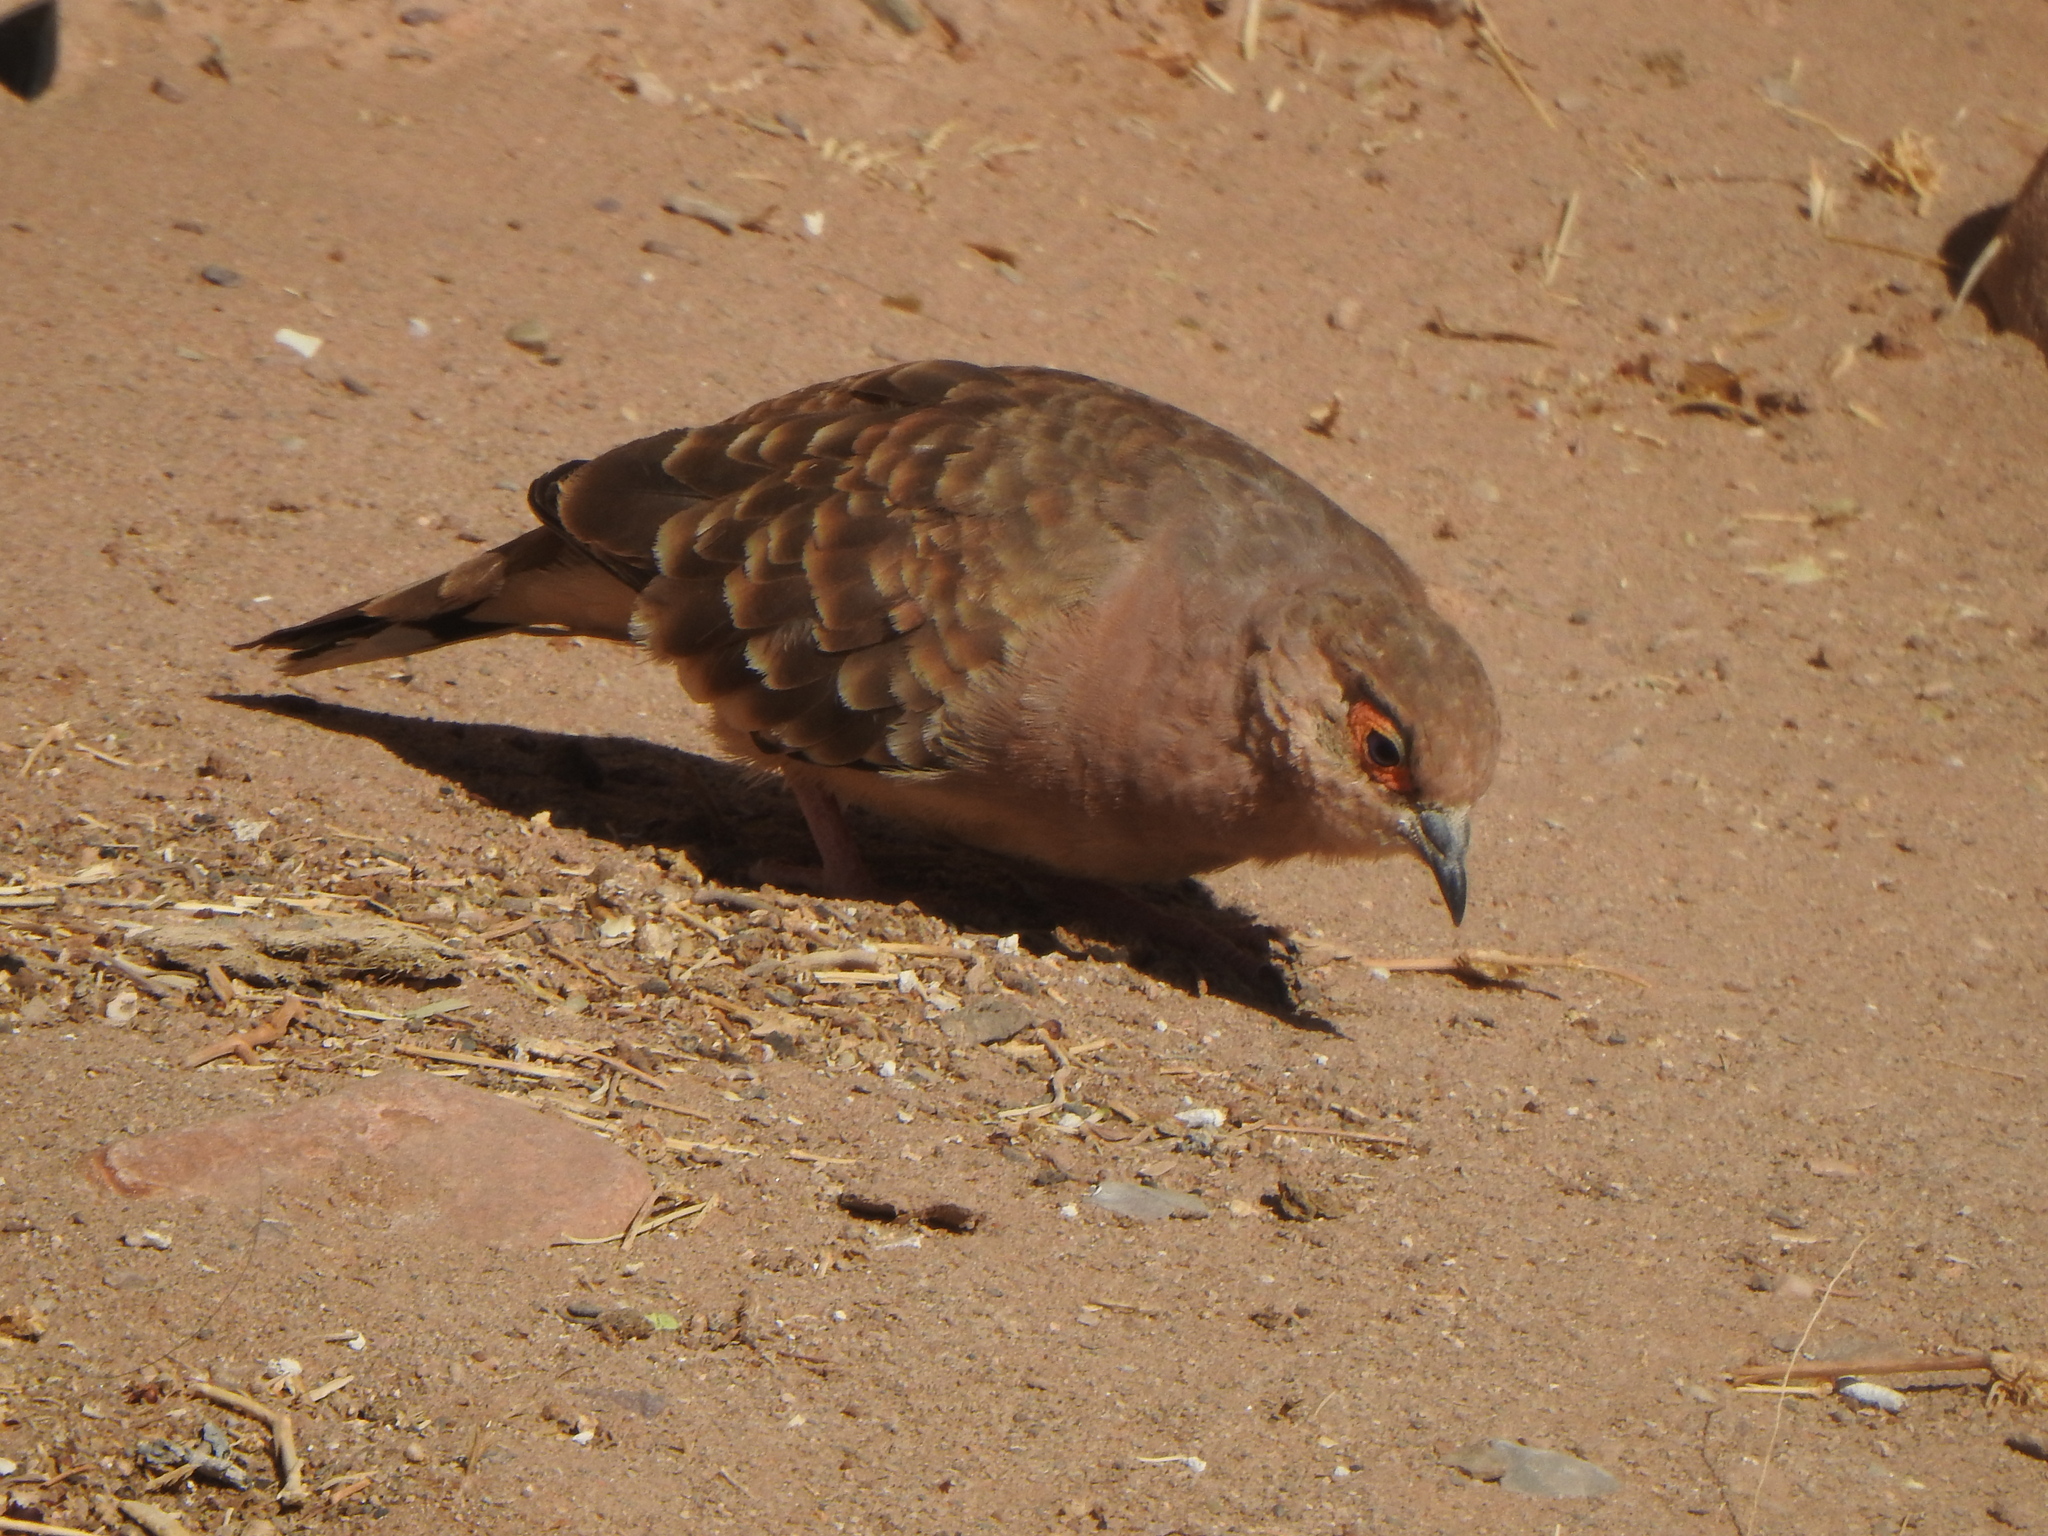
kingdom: Animalia
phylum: Chordata
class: Aves
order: Columbiformes
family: Columbidae
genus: Metriopelia
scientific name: Metriopelia ceciliae
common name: Bare-faced ground dove
